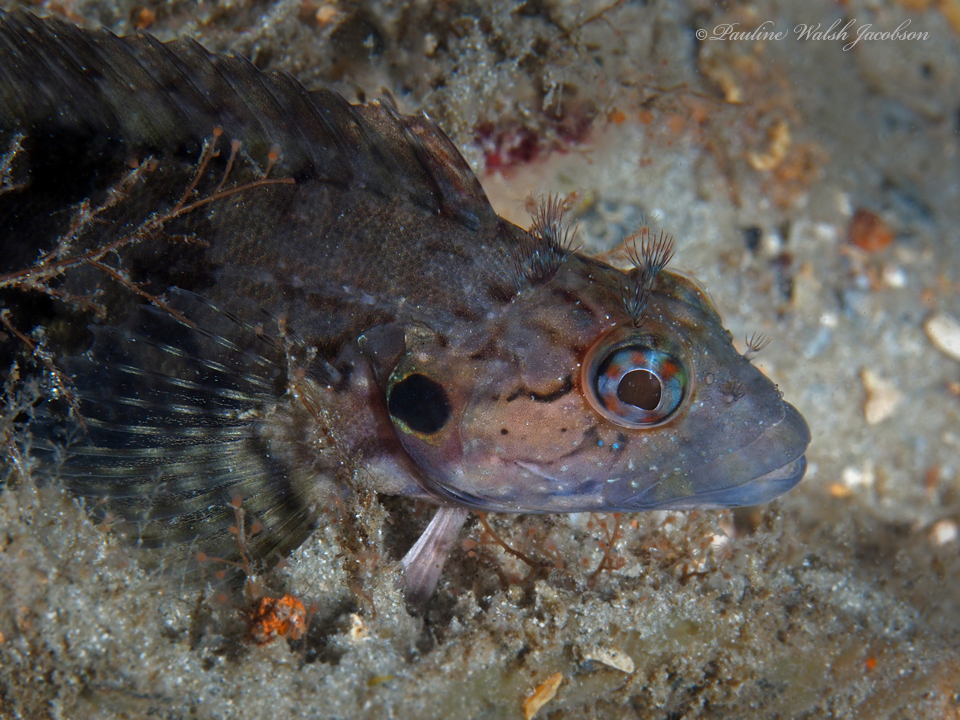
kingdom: Animalia
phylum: Chordata
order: Perciformes
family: Labrisomidae
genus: Labrisomus
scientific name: Labrisomus conditus
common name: Masquerader hairy blenny
